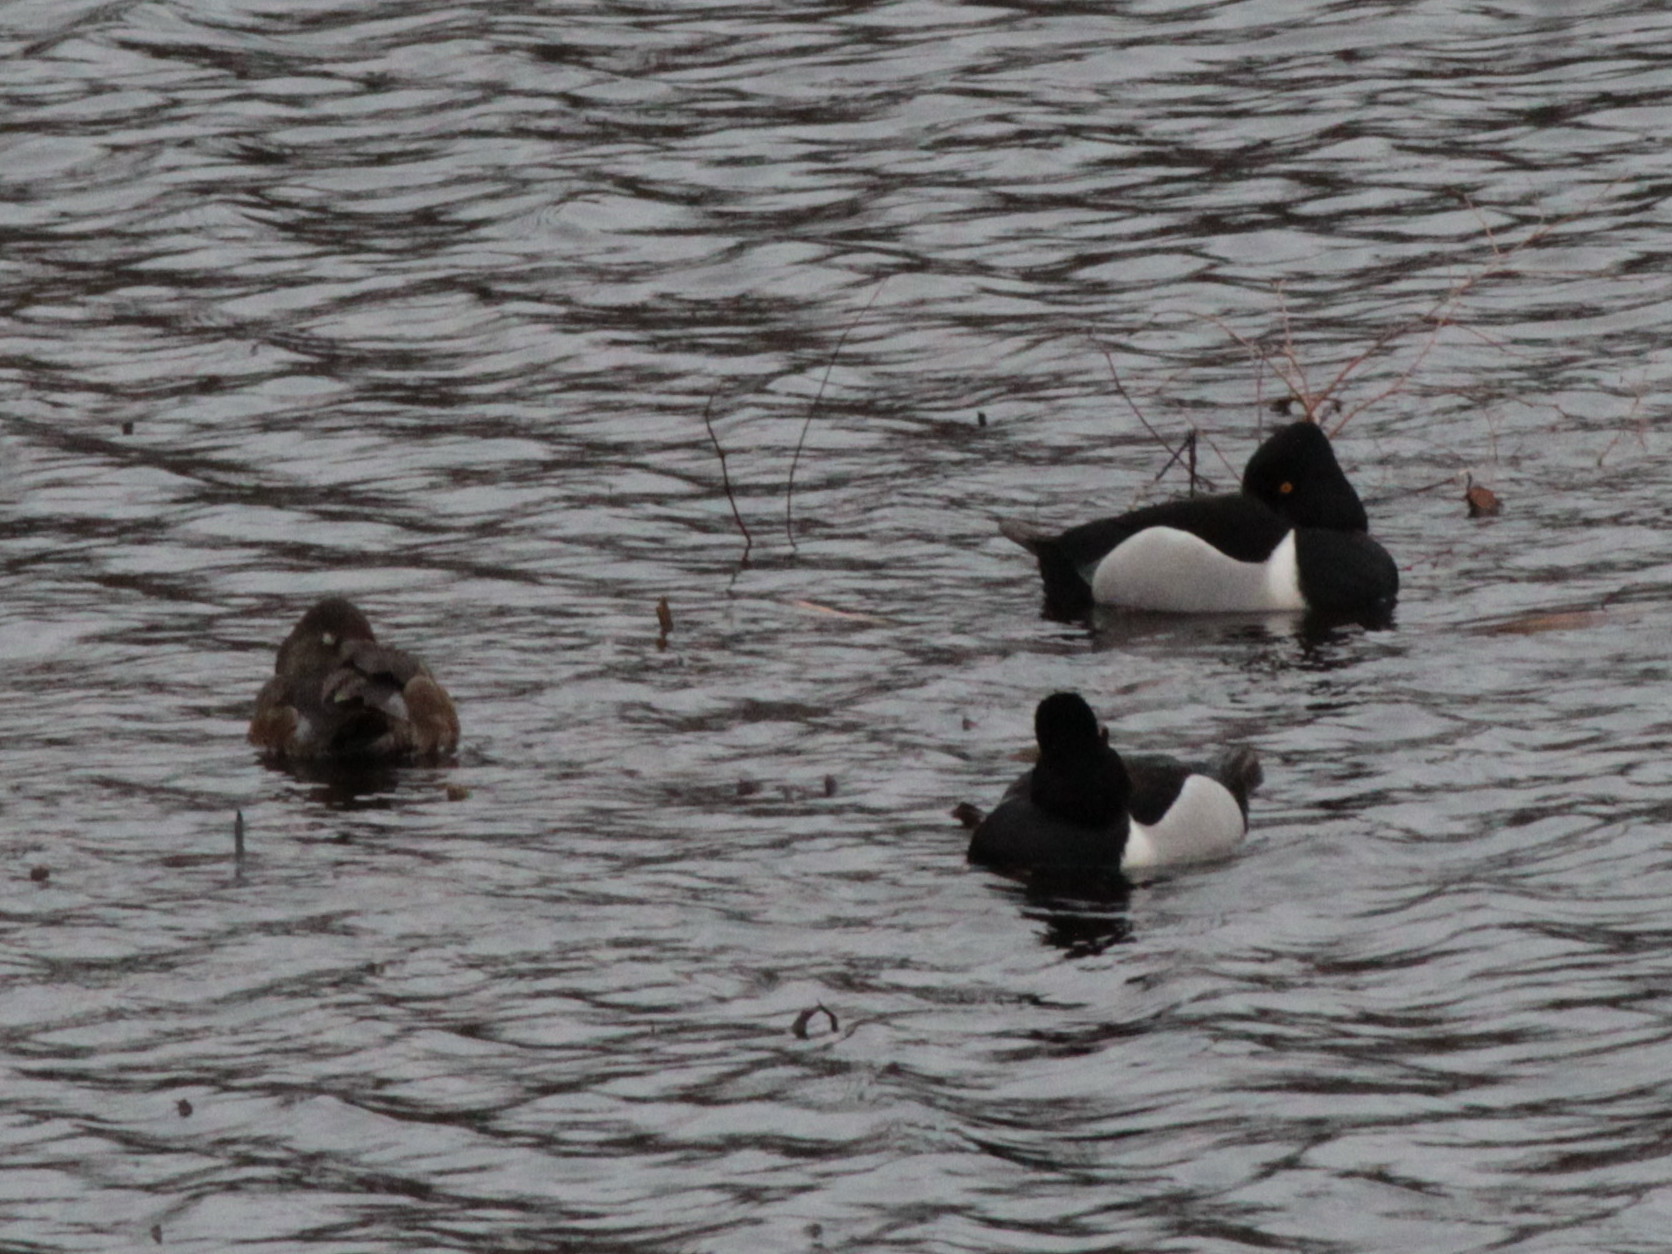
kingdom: Animalia
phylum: Chordata
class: Aves
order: Anseriformes
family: Anatidae
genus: Aythya
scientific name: Aythya collaris
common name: Ring-necked duck
